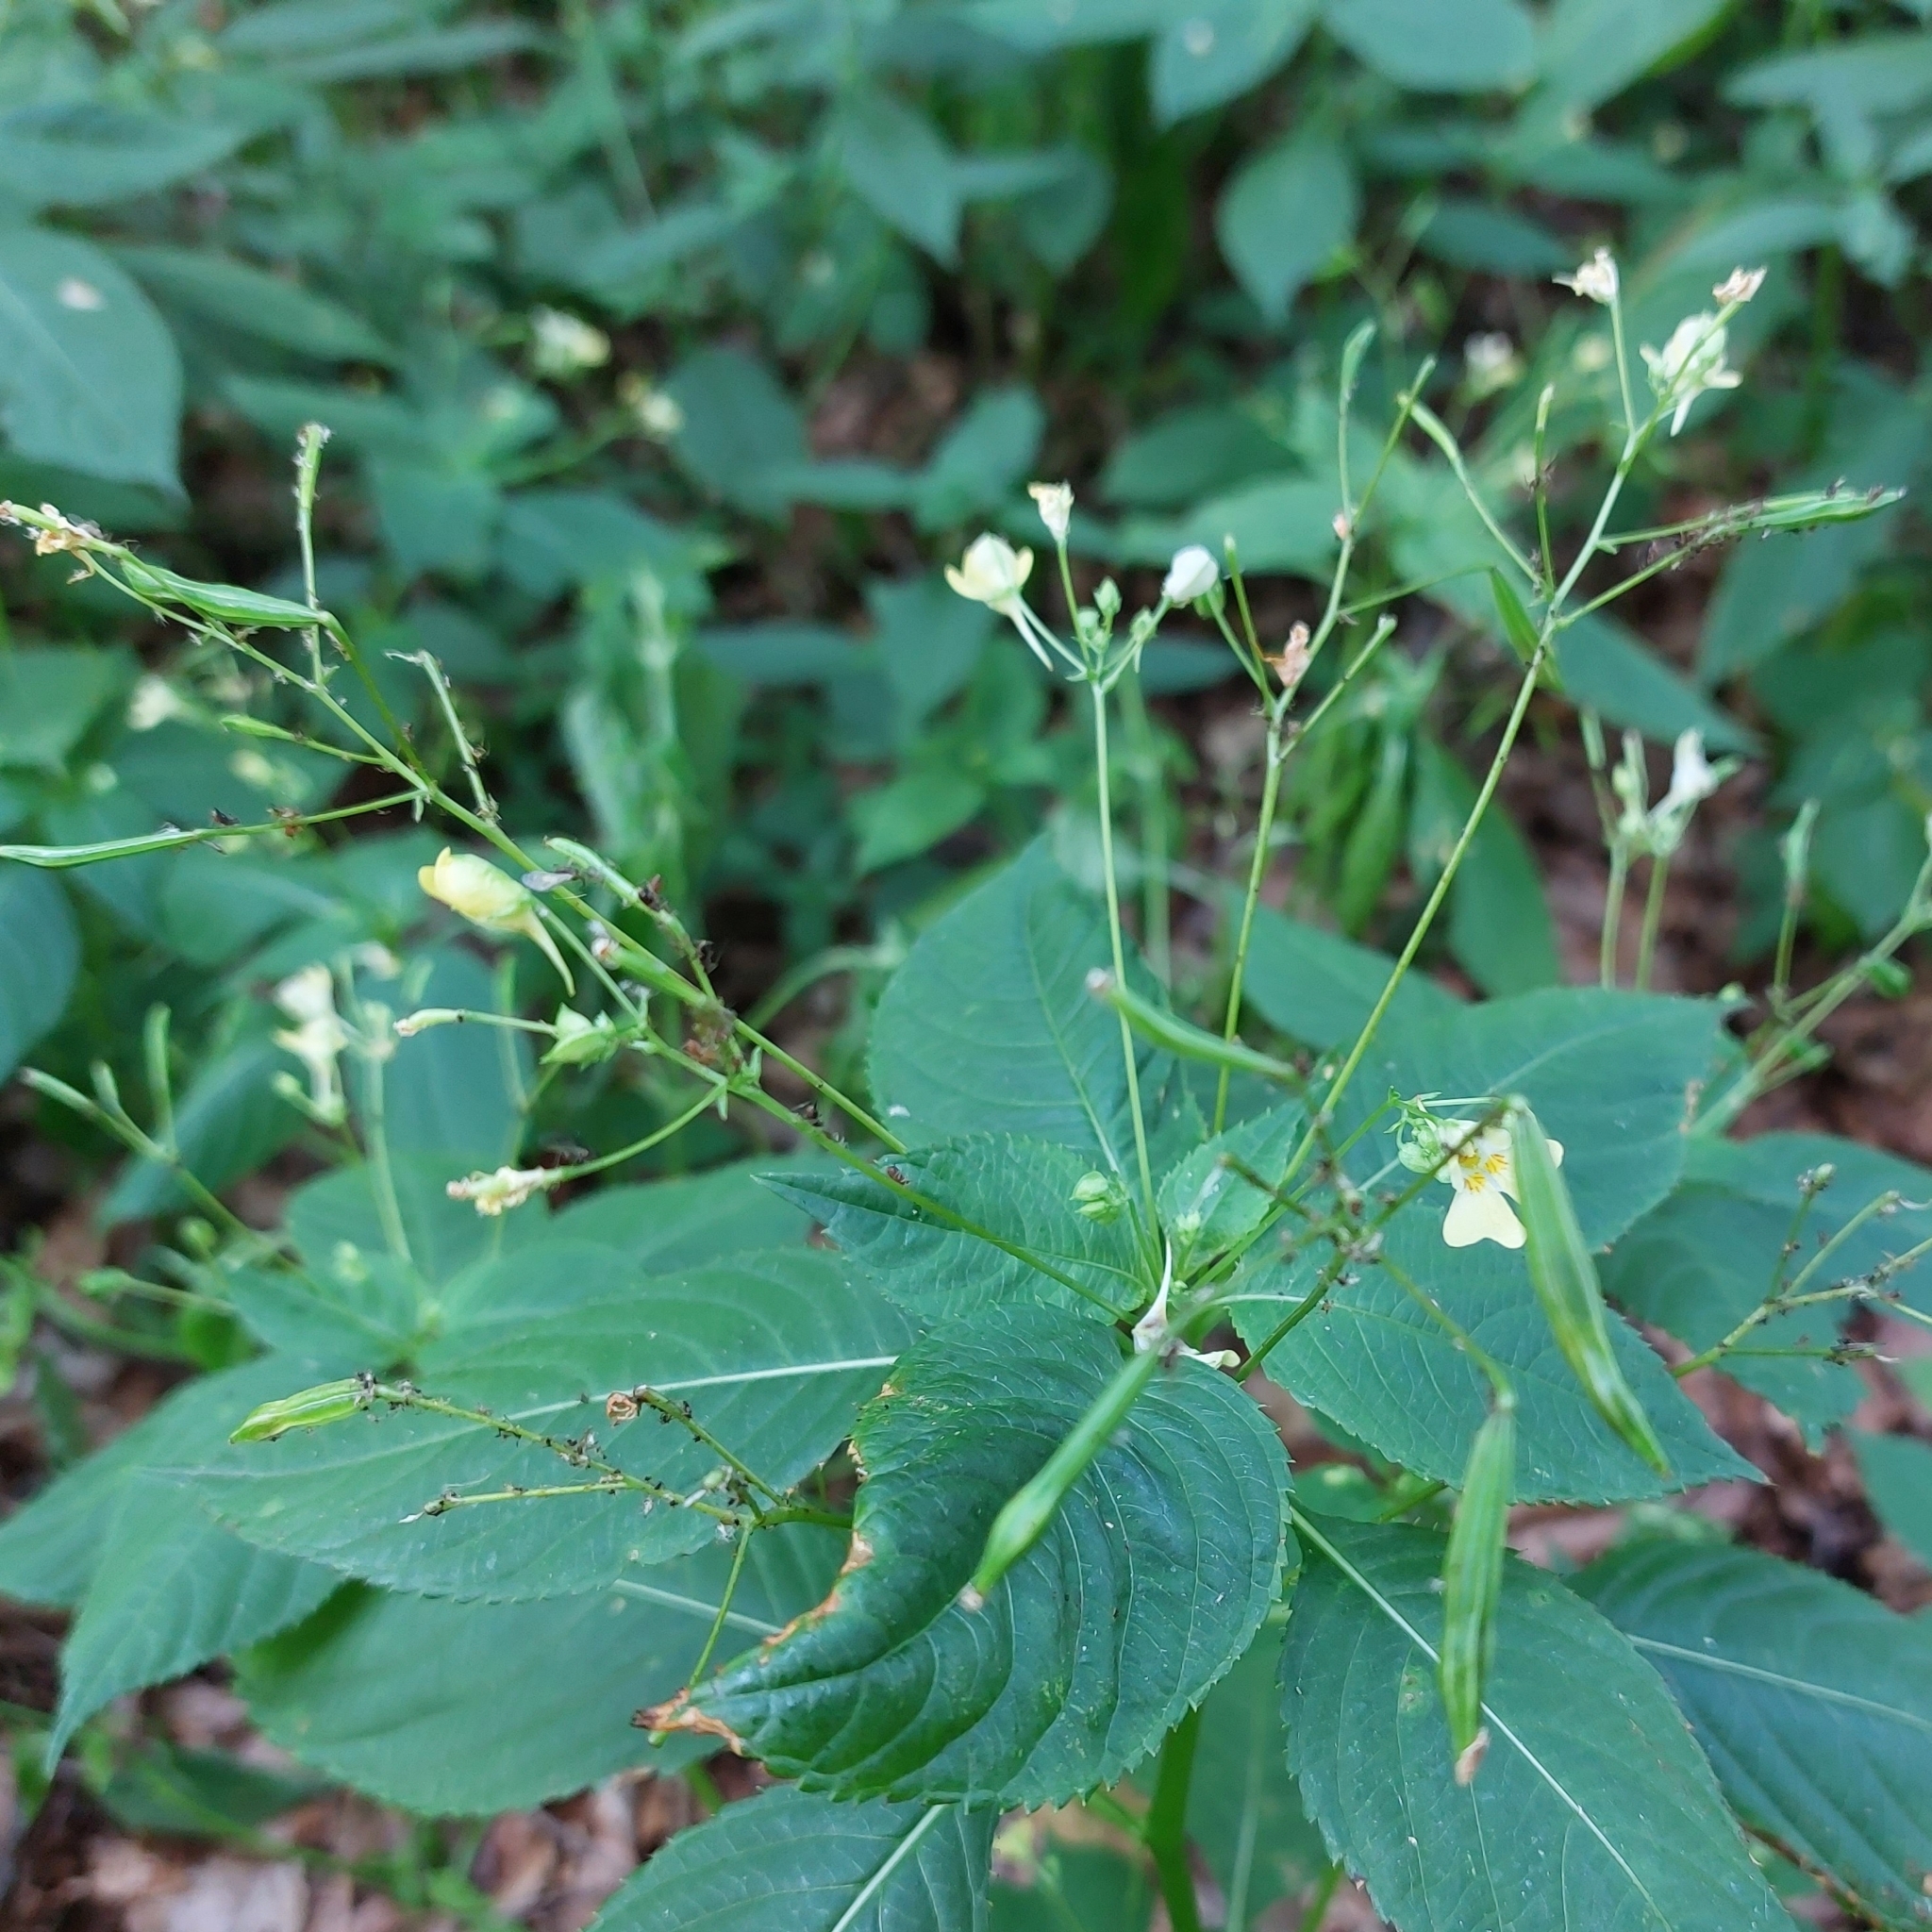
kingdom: Plantae
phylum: Tracheophyta
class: Magnoliopsida
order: Ericales
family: Balsaminaceae
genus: Impatiens
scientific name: Impatiens parviflora
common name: Small balsam
